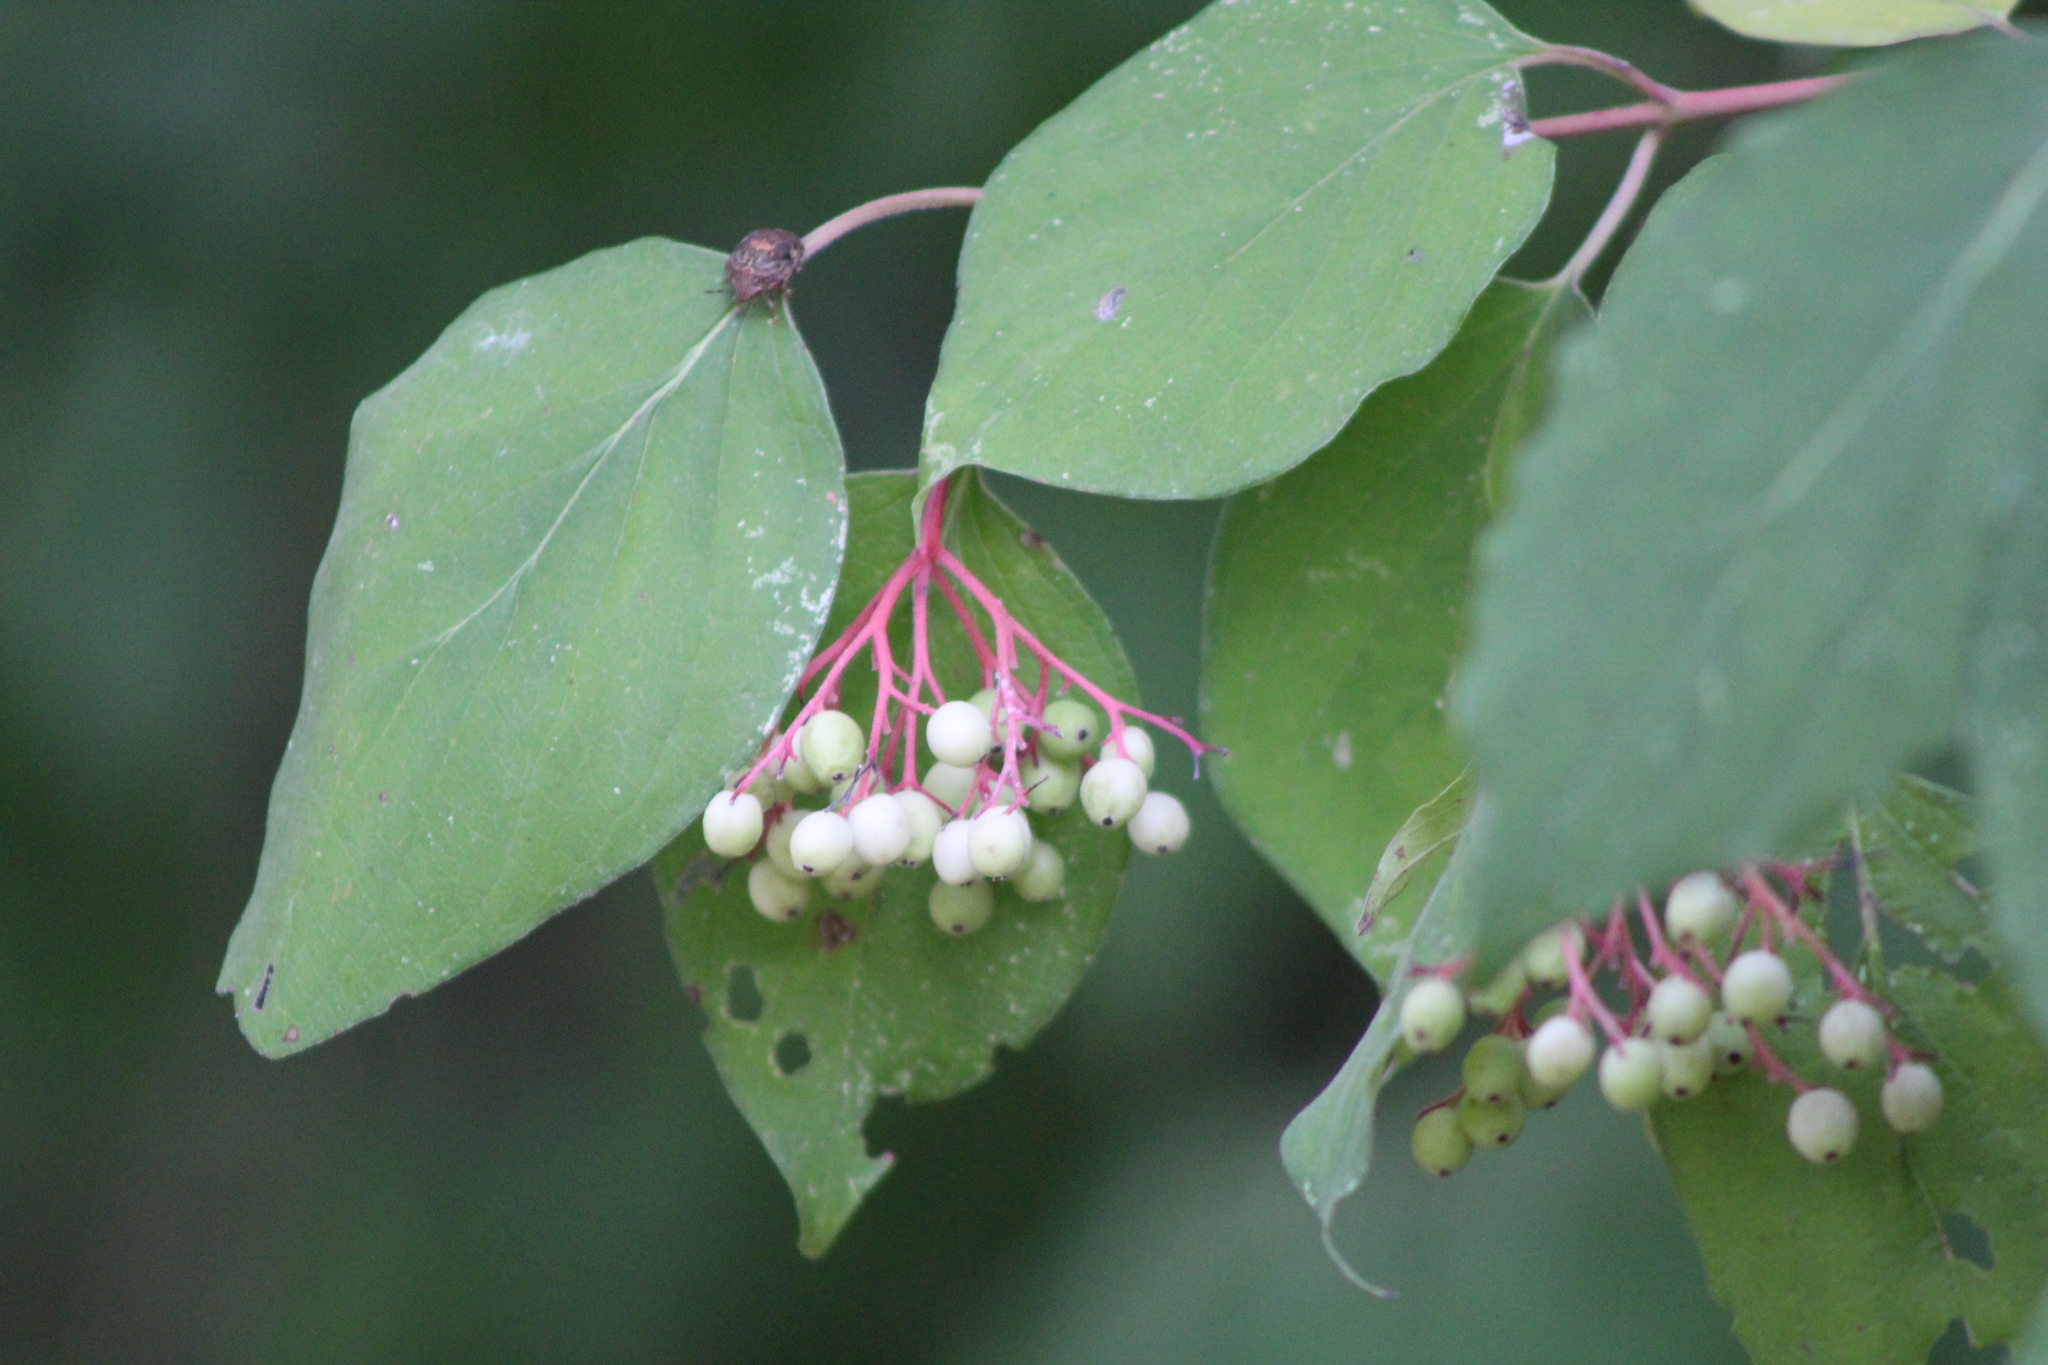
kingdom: Plantae
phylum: Tracheophyta
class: Magnoliopsida
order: Cornales
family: Cornaceae
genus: Cornus
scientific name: Cornus drummondii
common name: Rough-leaf dogwood
